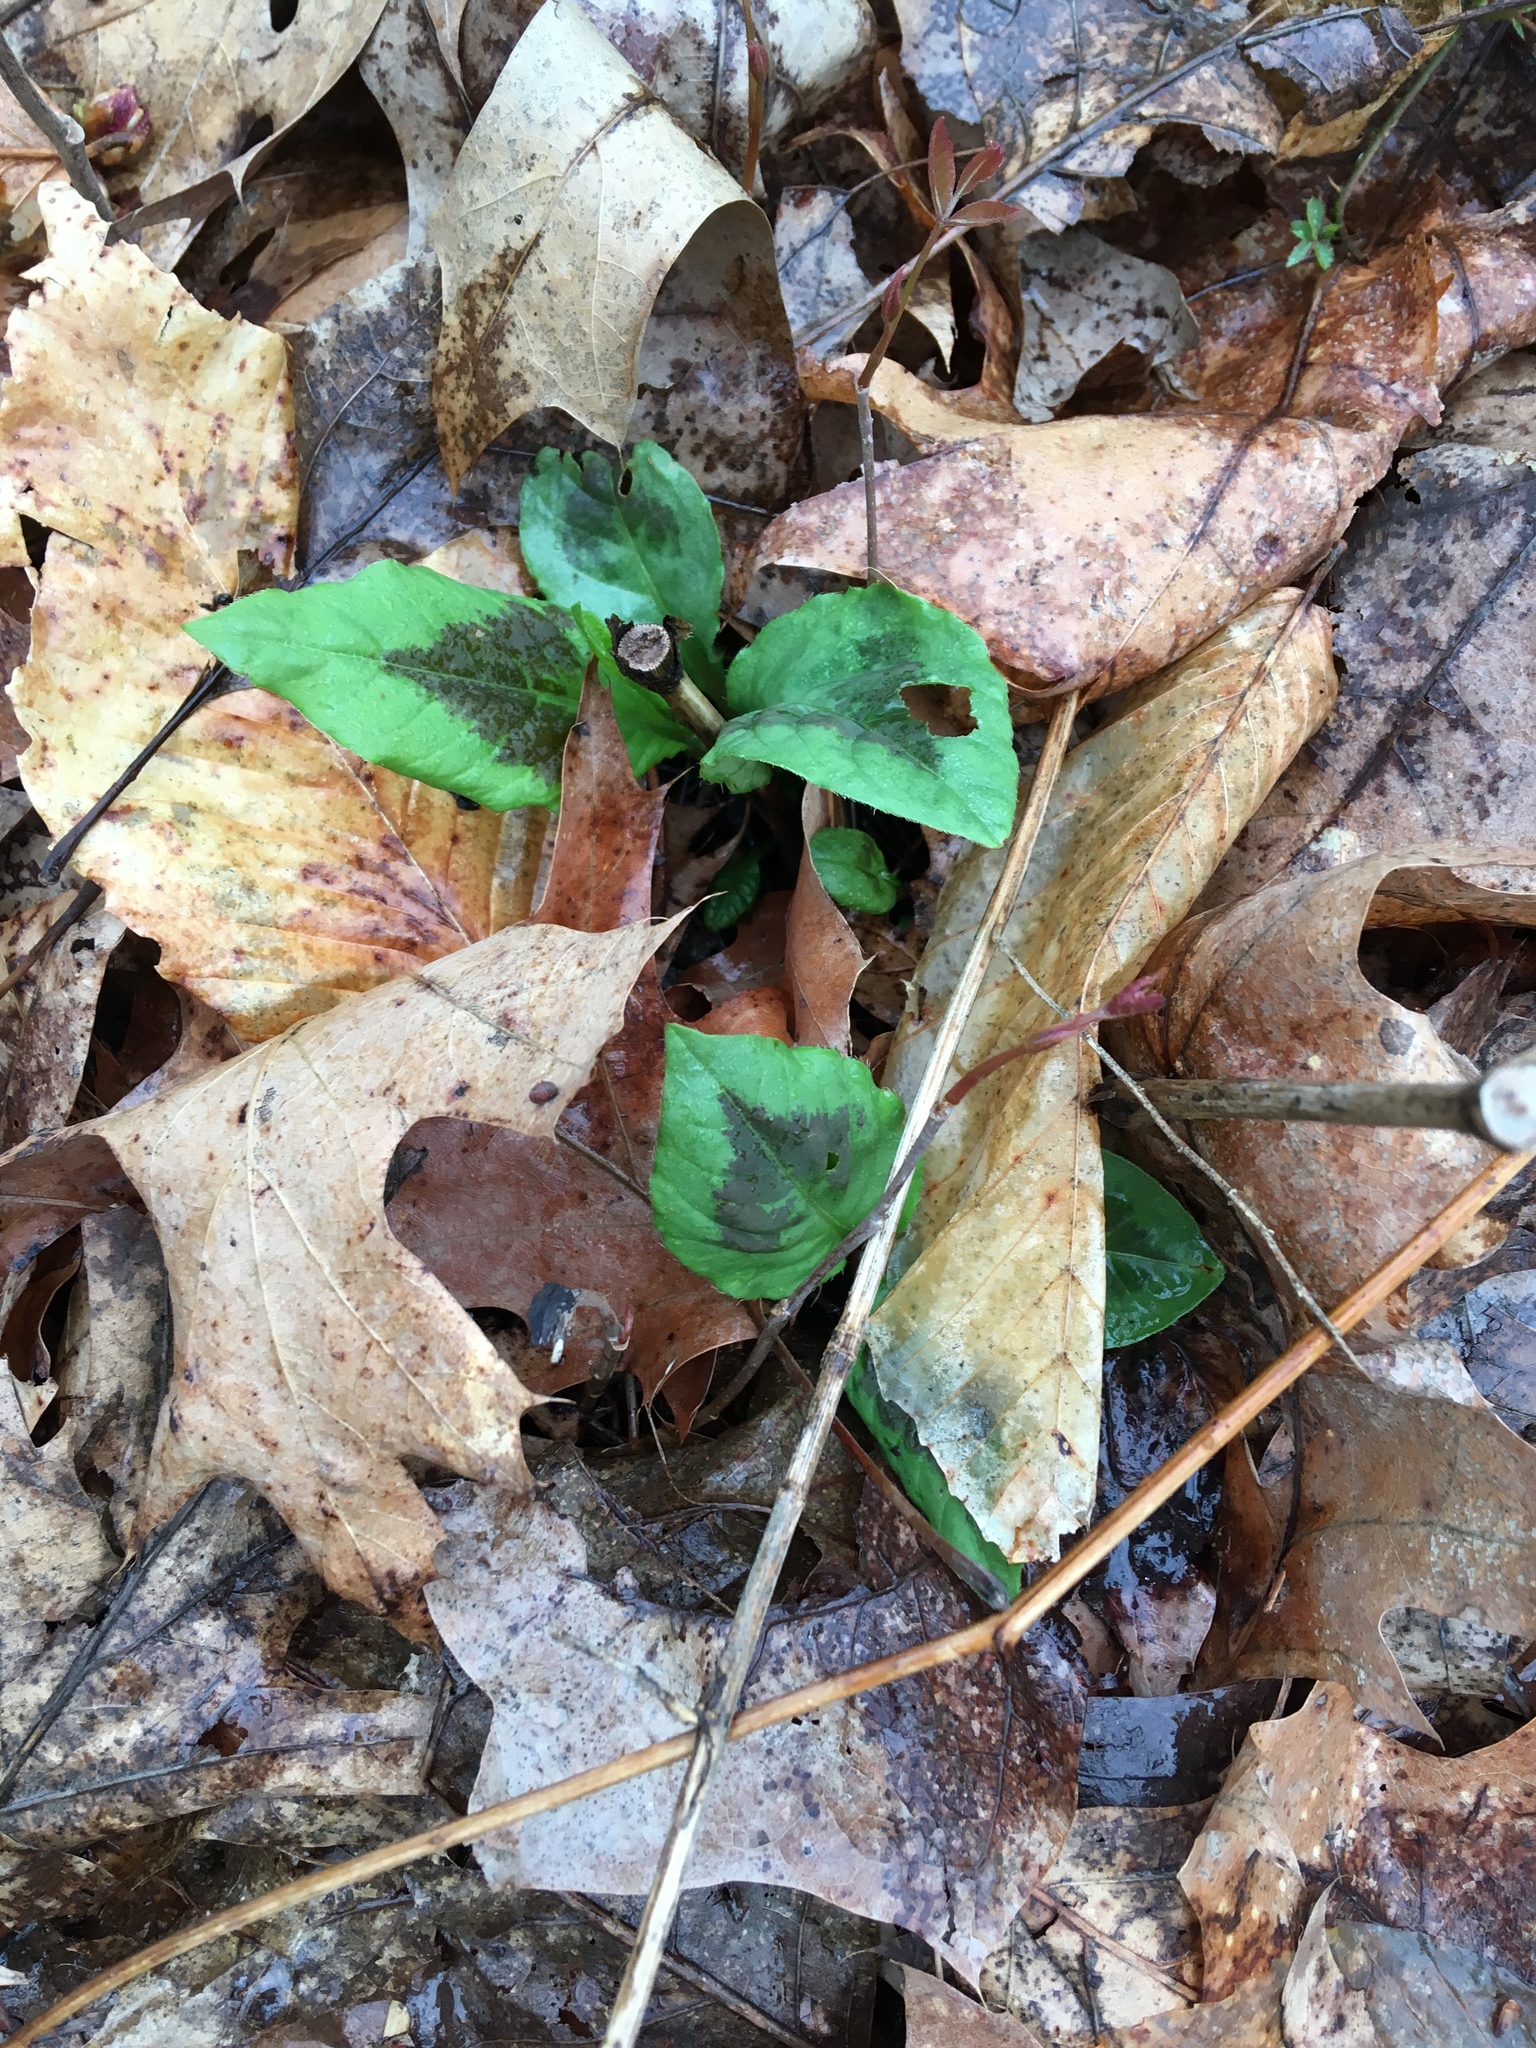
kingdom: Plantae
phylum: Tracheophyta
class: Magnoliopsida
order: Caryophyllales
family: Polygonaceae
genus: Persicaria
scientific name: Persicaria virginiana
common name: Jumpseed
